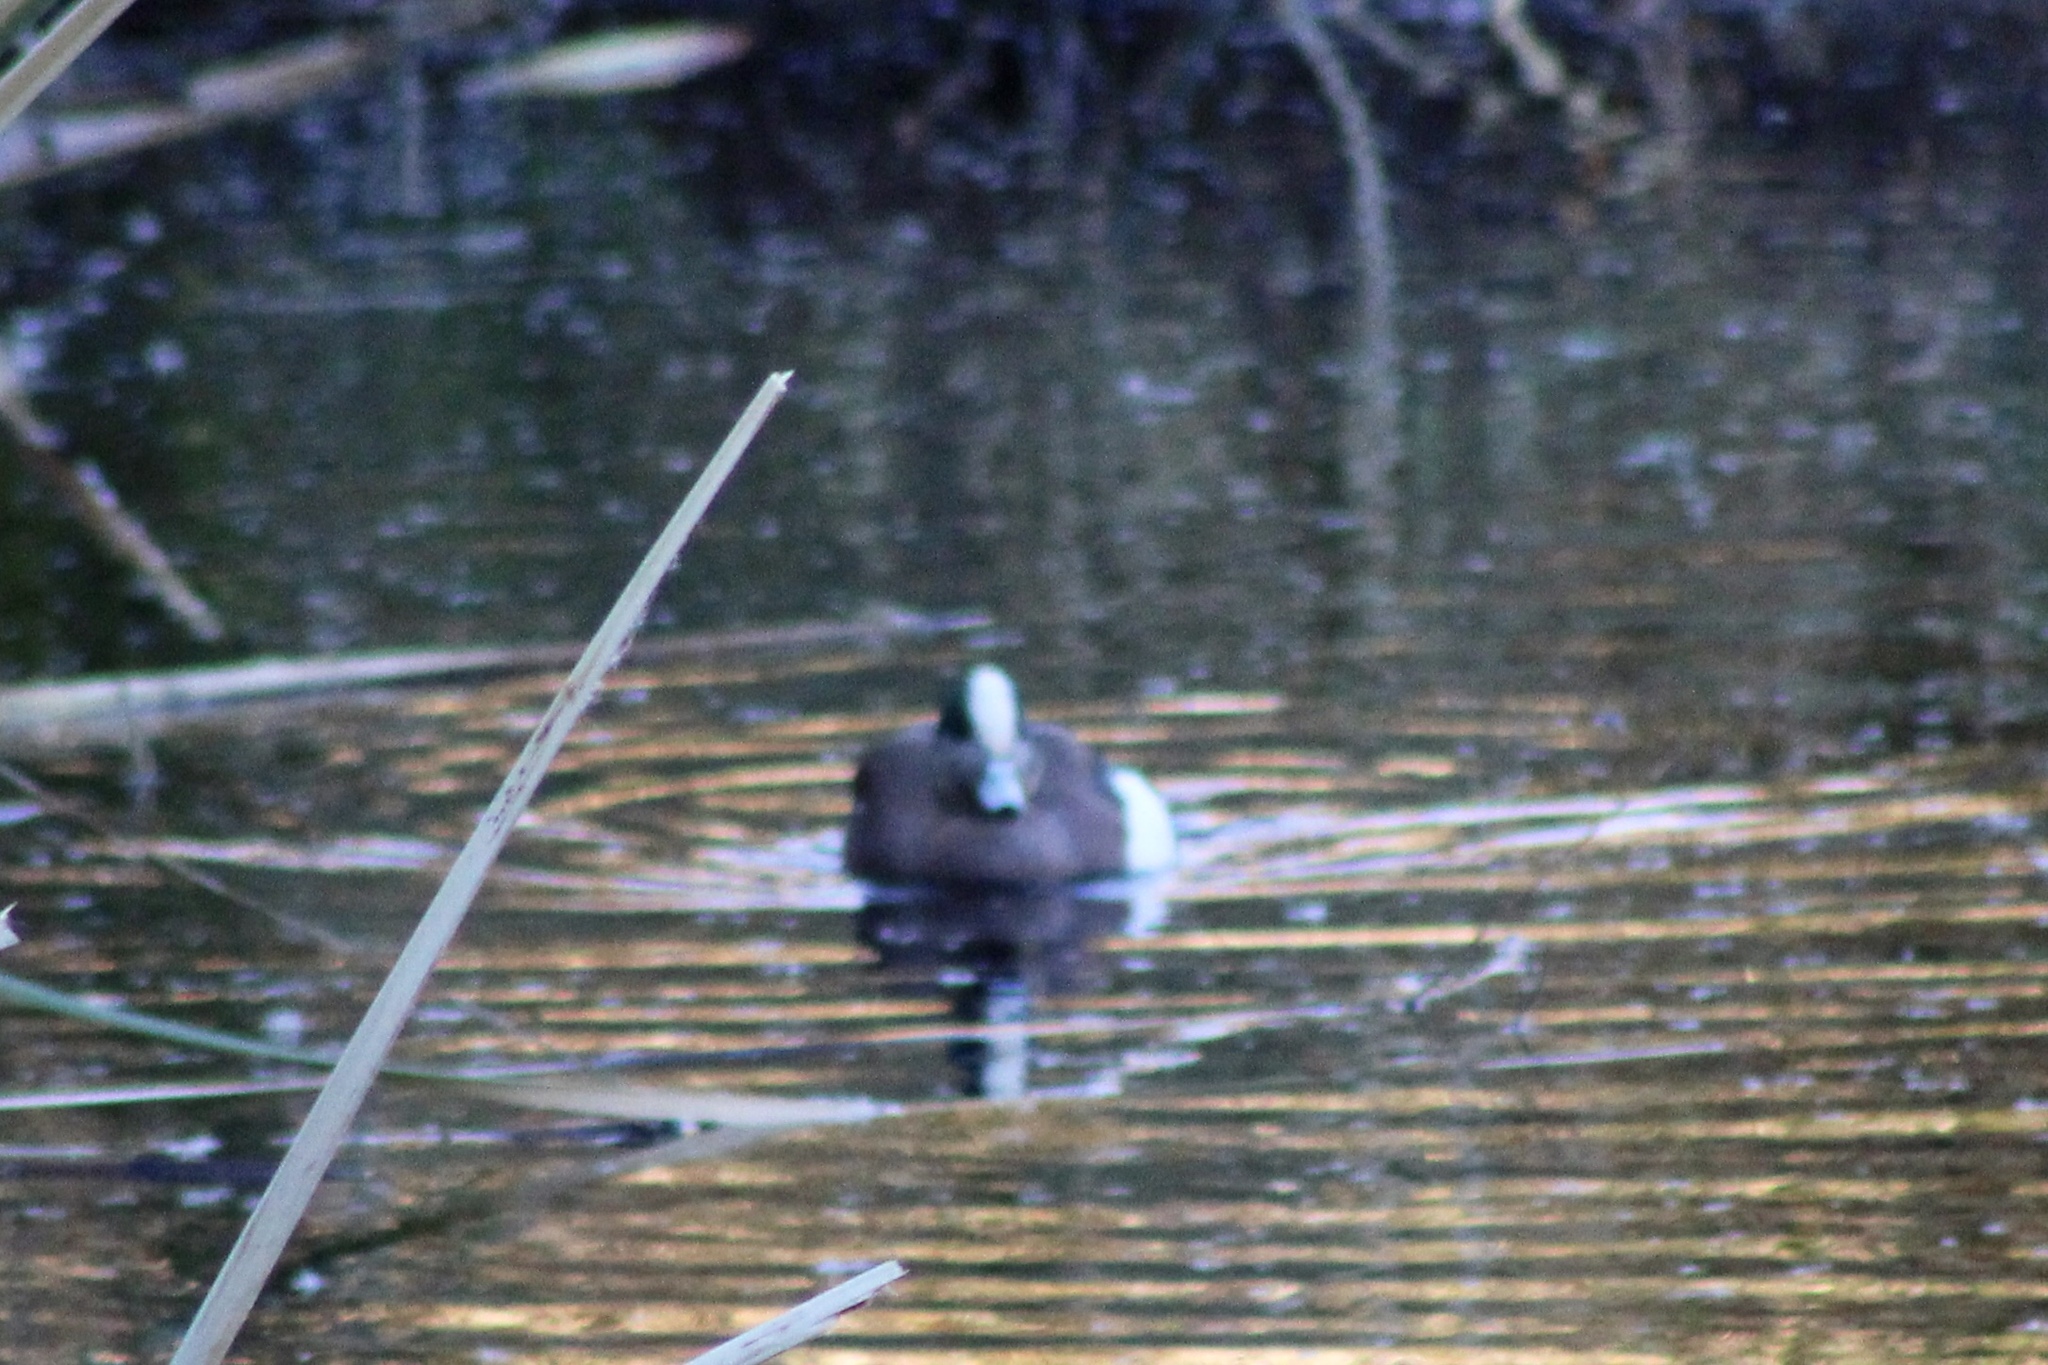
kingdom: Animalia
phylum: Chordata
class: Aves
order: Anseriformes
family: Anatidae
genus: Mareca
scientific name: Mareca americana
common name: American wigeon
